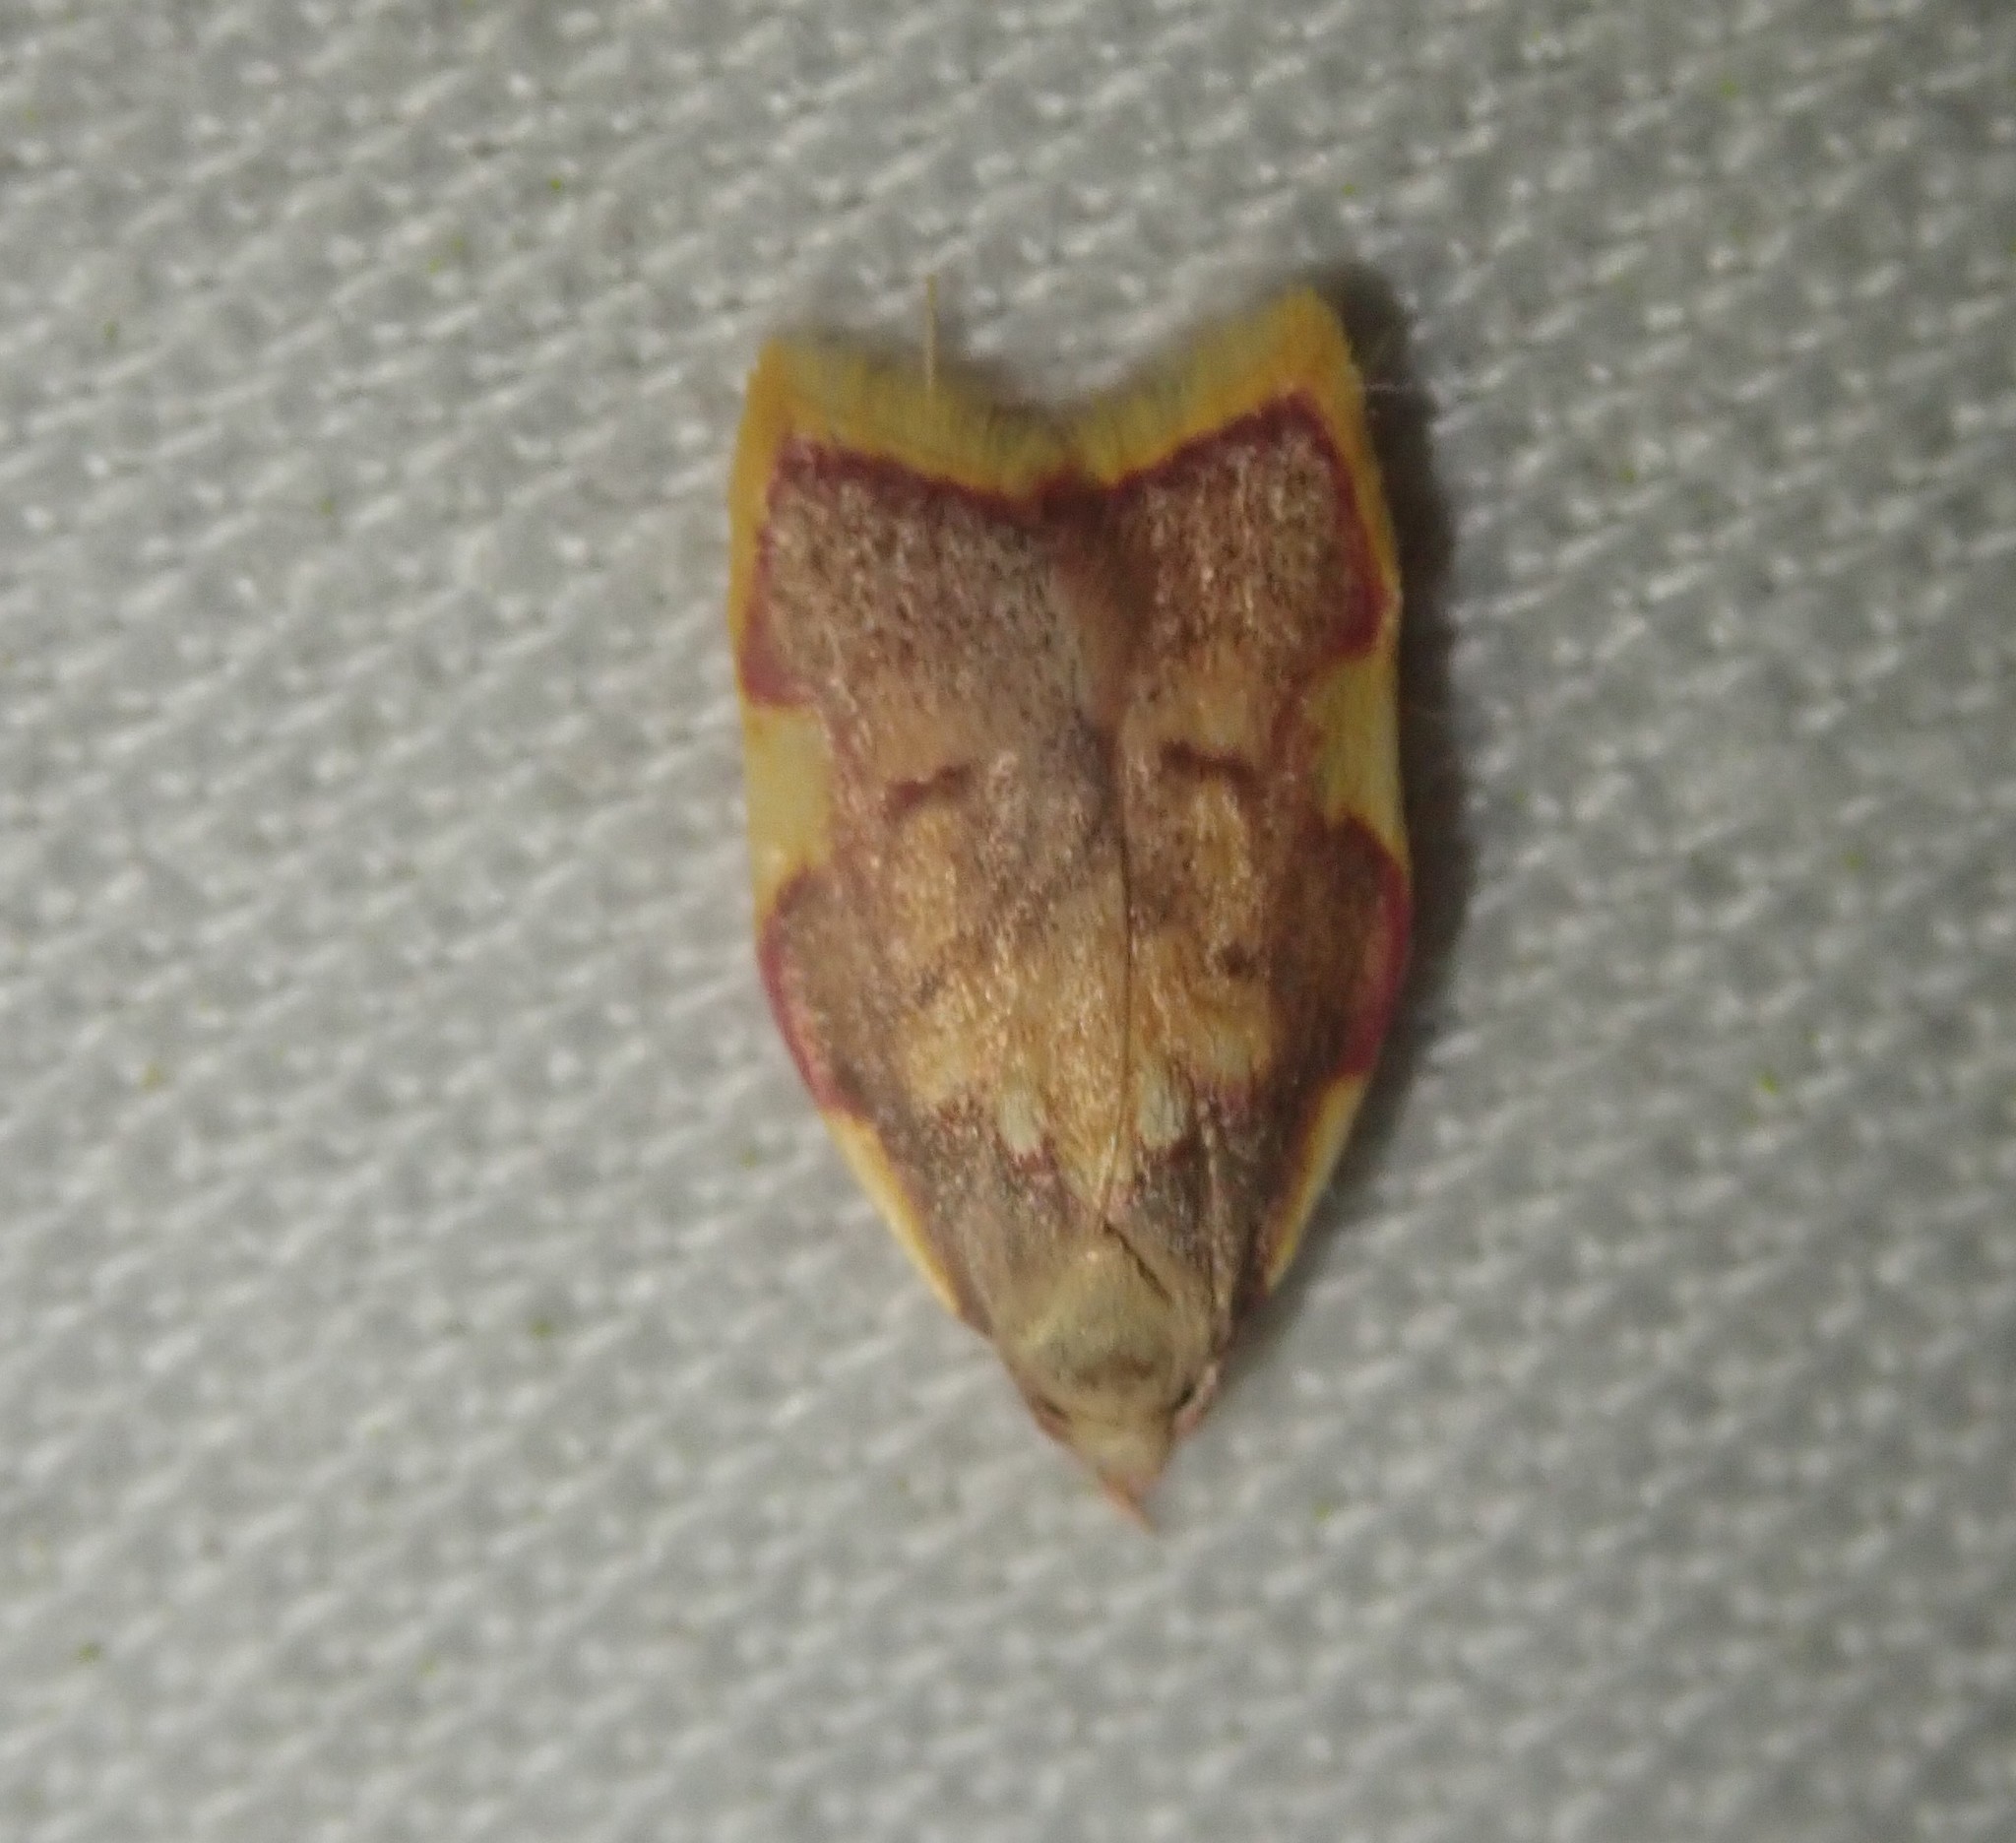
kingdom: Animalia
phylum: Arthropoda
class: Insecta
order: Lepidoptera
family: Peleopodidae
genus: Carcina
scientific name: Carcina quercana
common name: Moth
